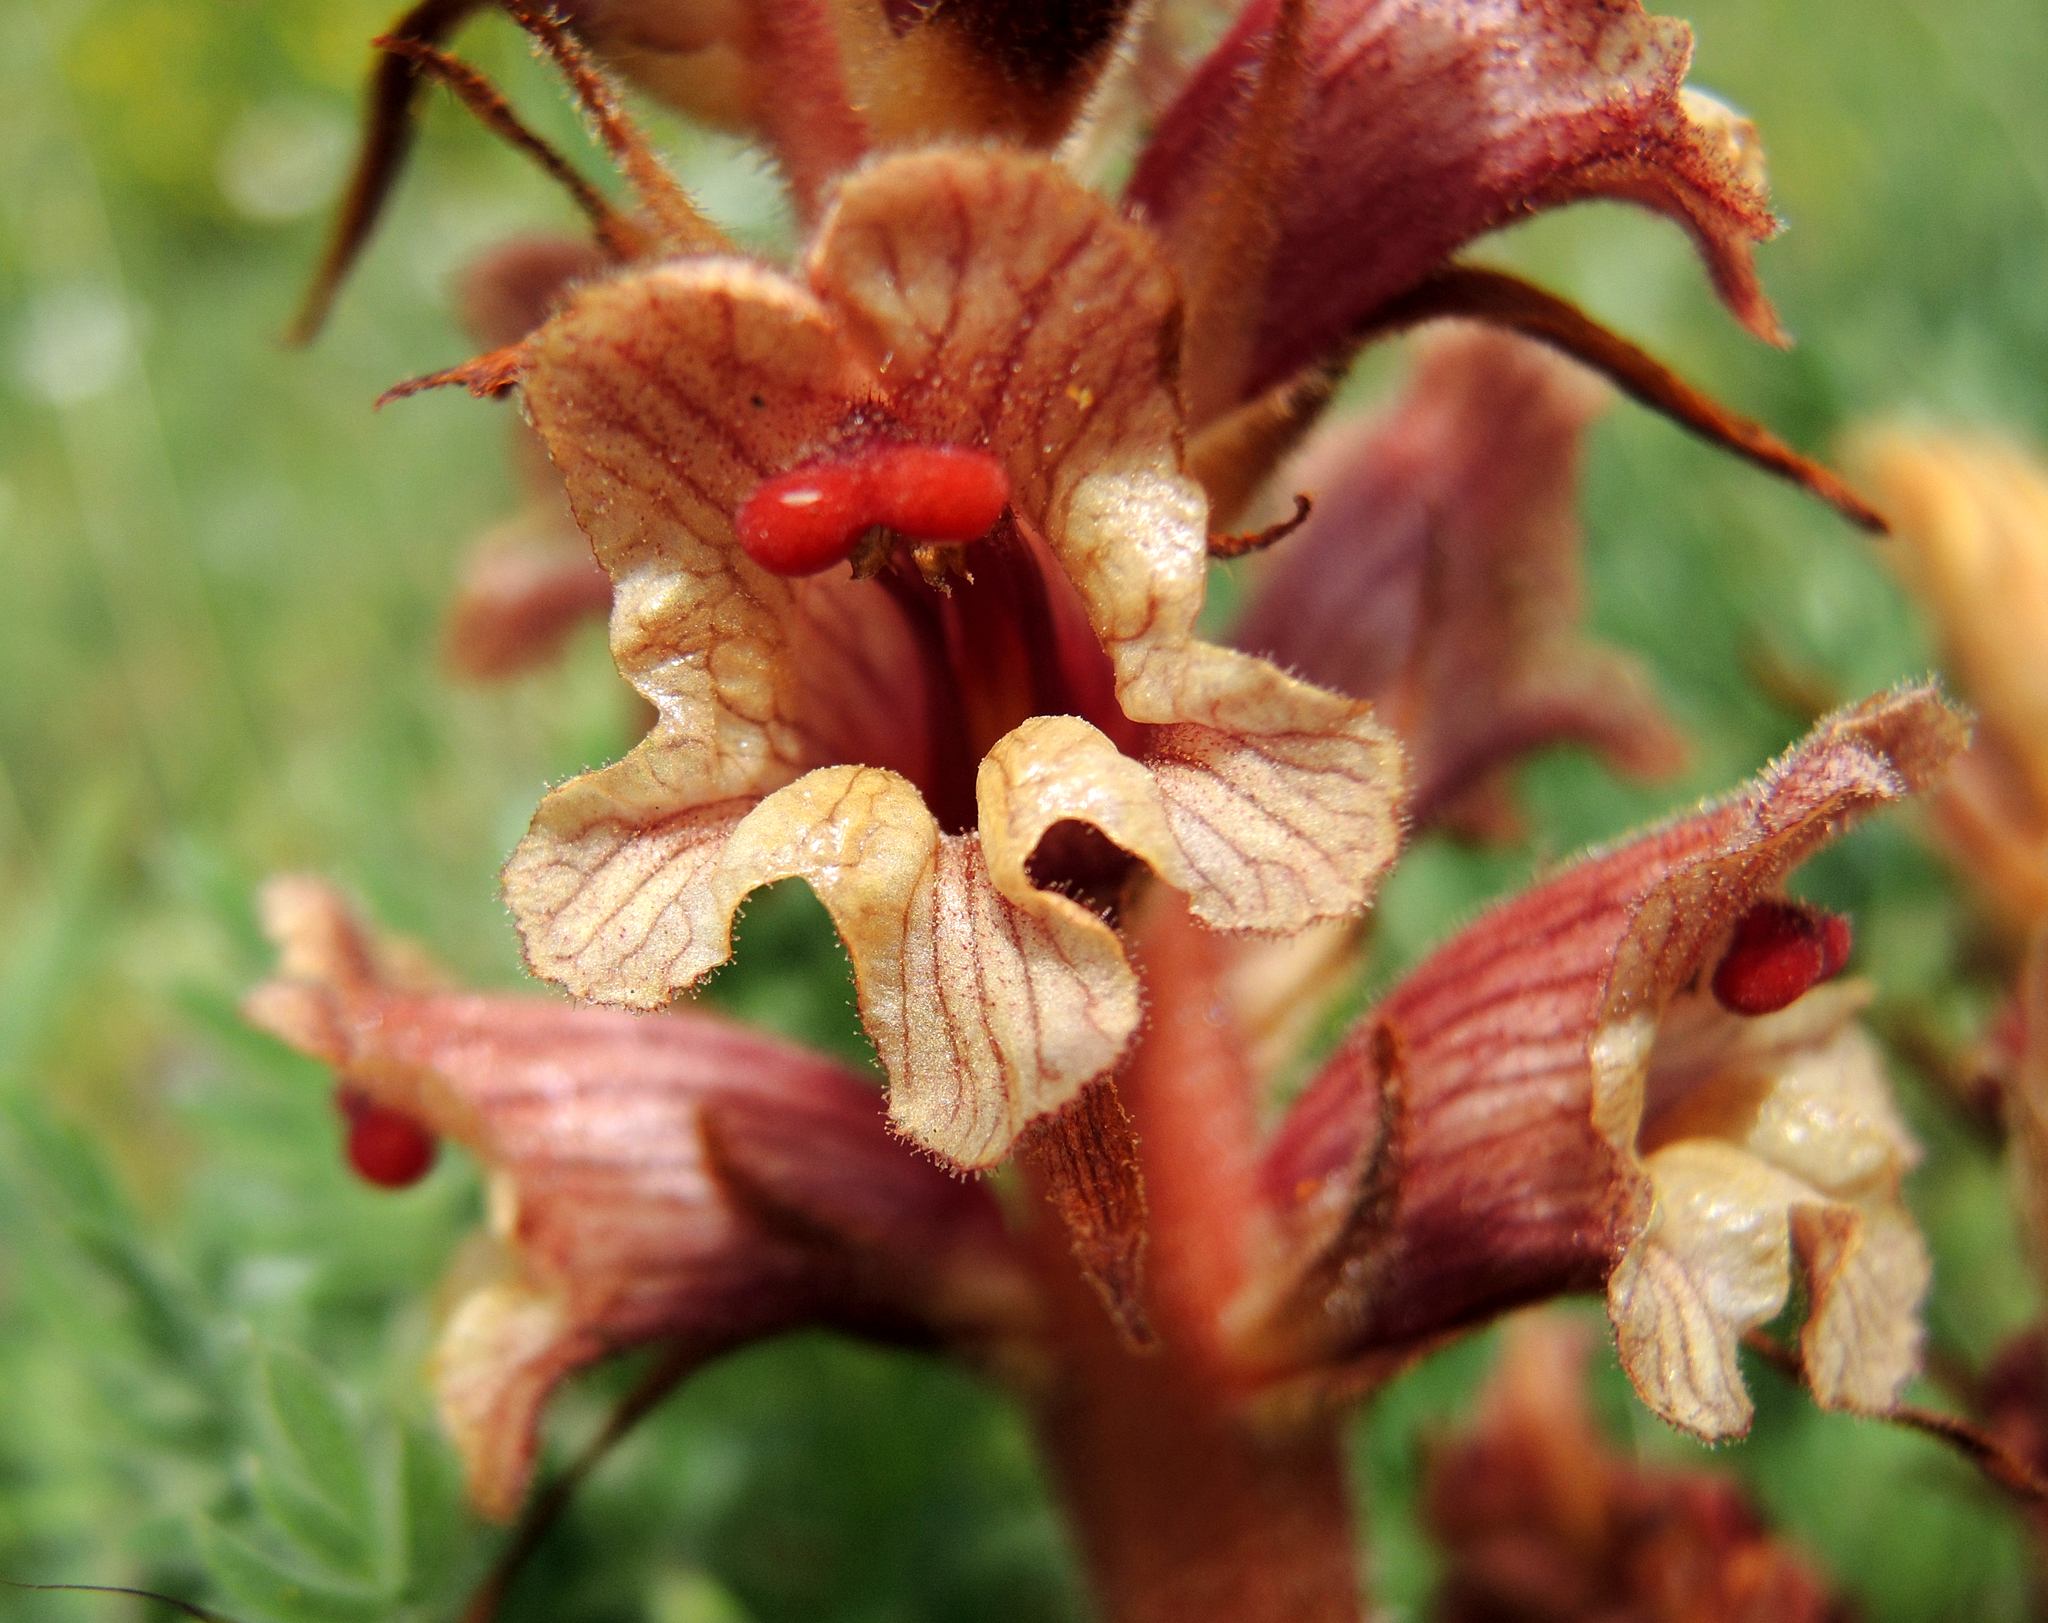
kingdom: Plantae
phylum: Tracheophyta
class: Magnoliopsida
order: Lamiales
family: Orobanchaceae
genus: Orobanche
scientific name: Orobanche alba
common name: Thyme broomrape
